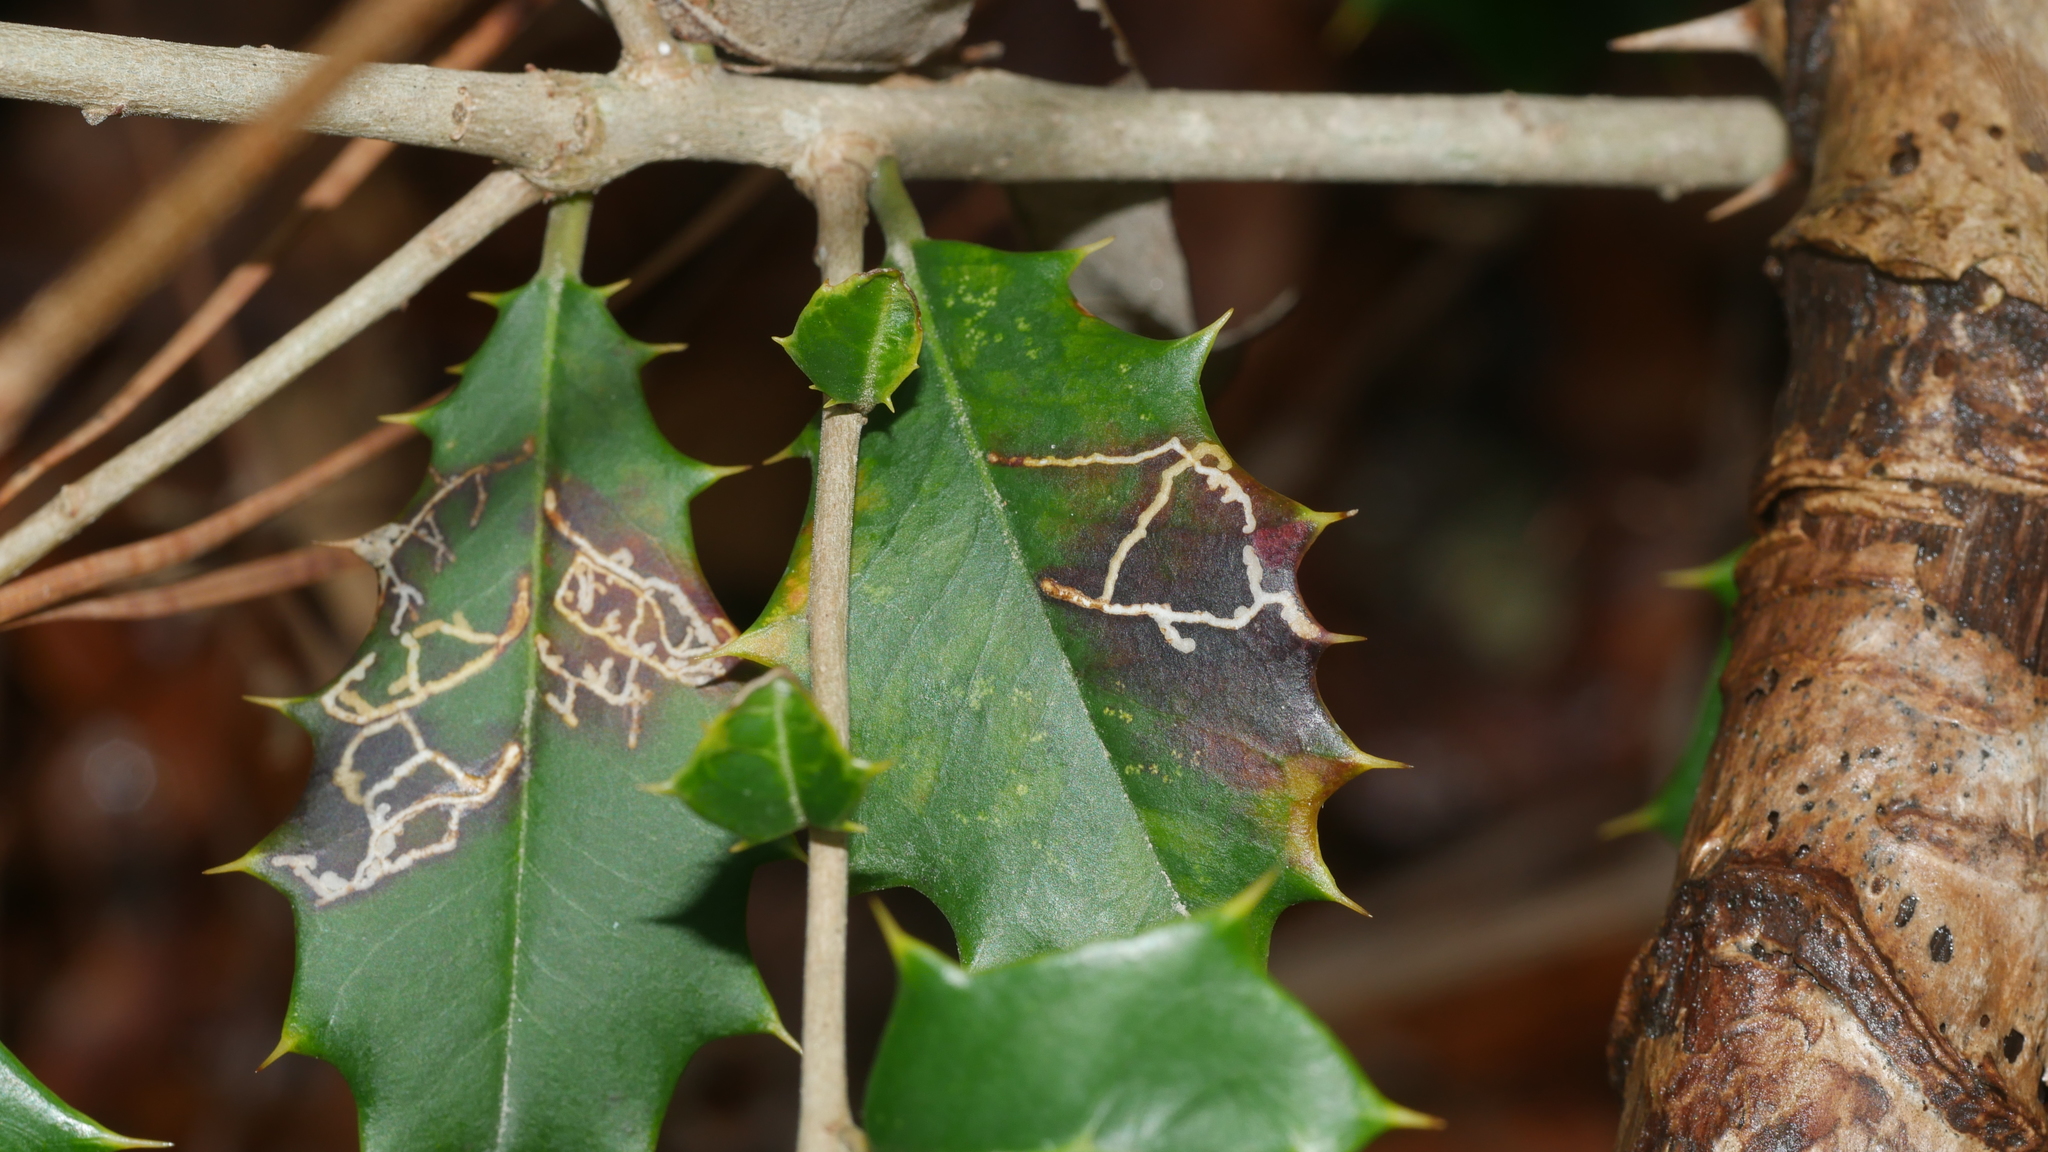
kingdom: Animalia
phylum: Arthropoda
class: Insecta
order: Lepidoptera
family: Tortricidae
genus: Rhopobota
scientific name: Rhopobota
